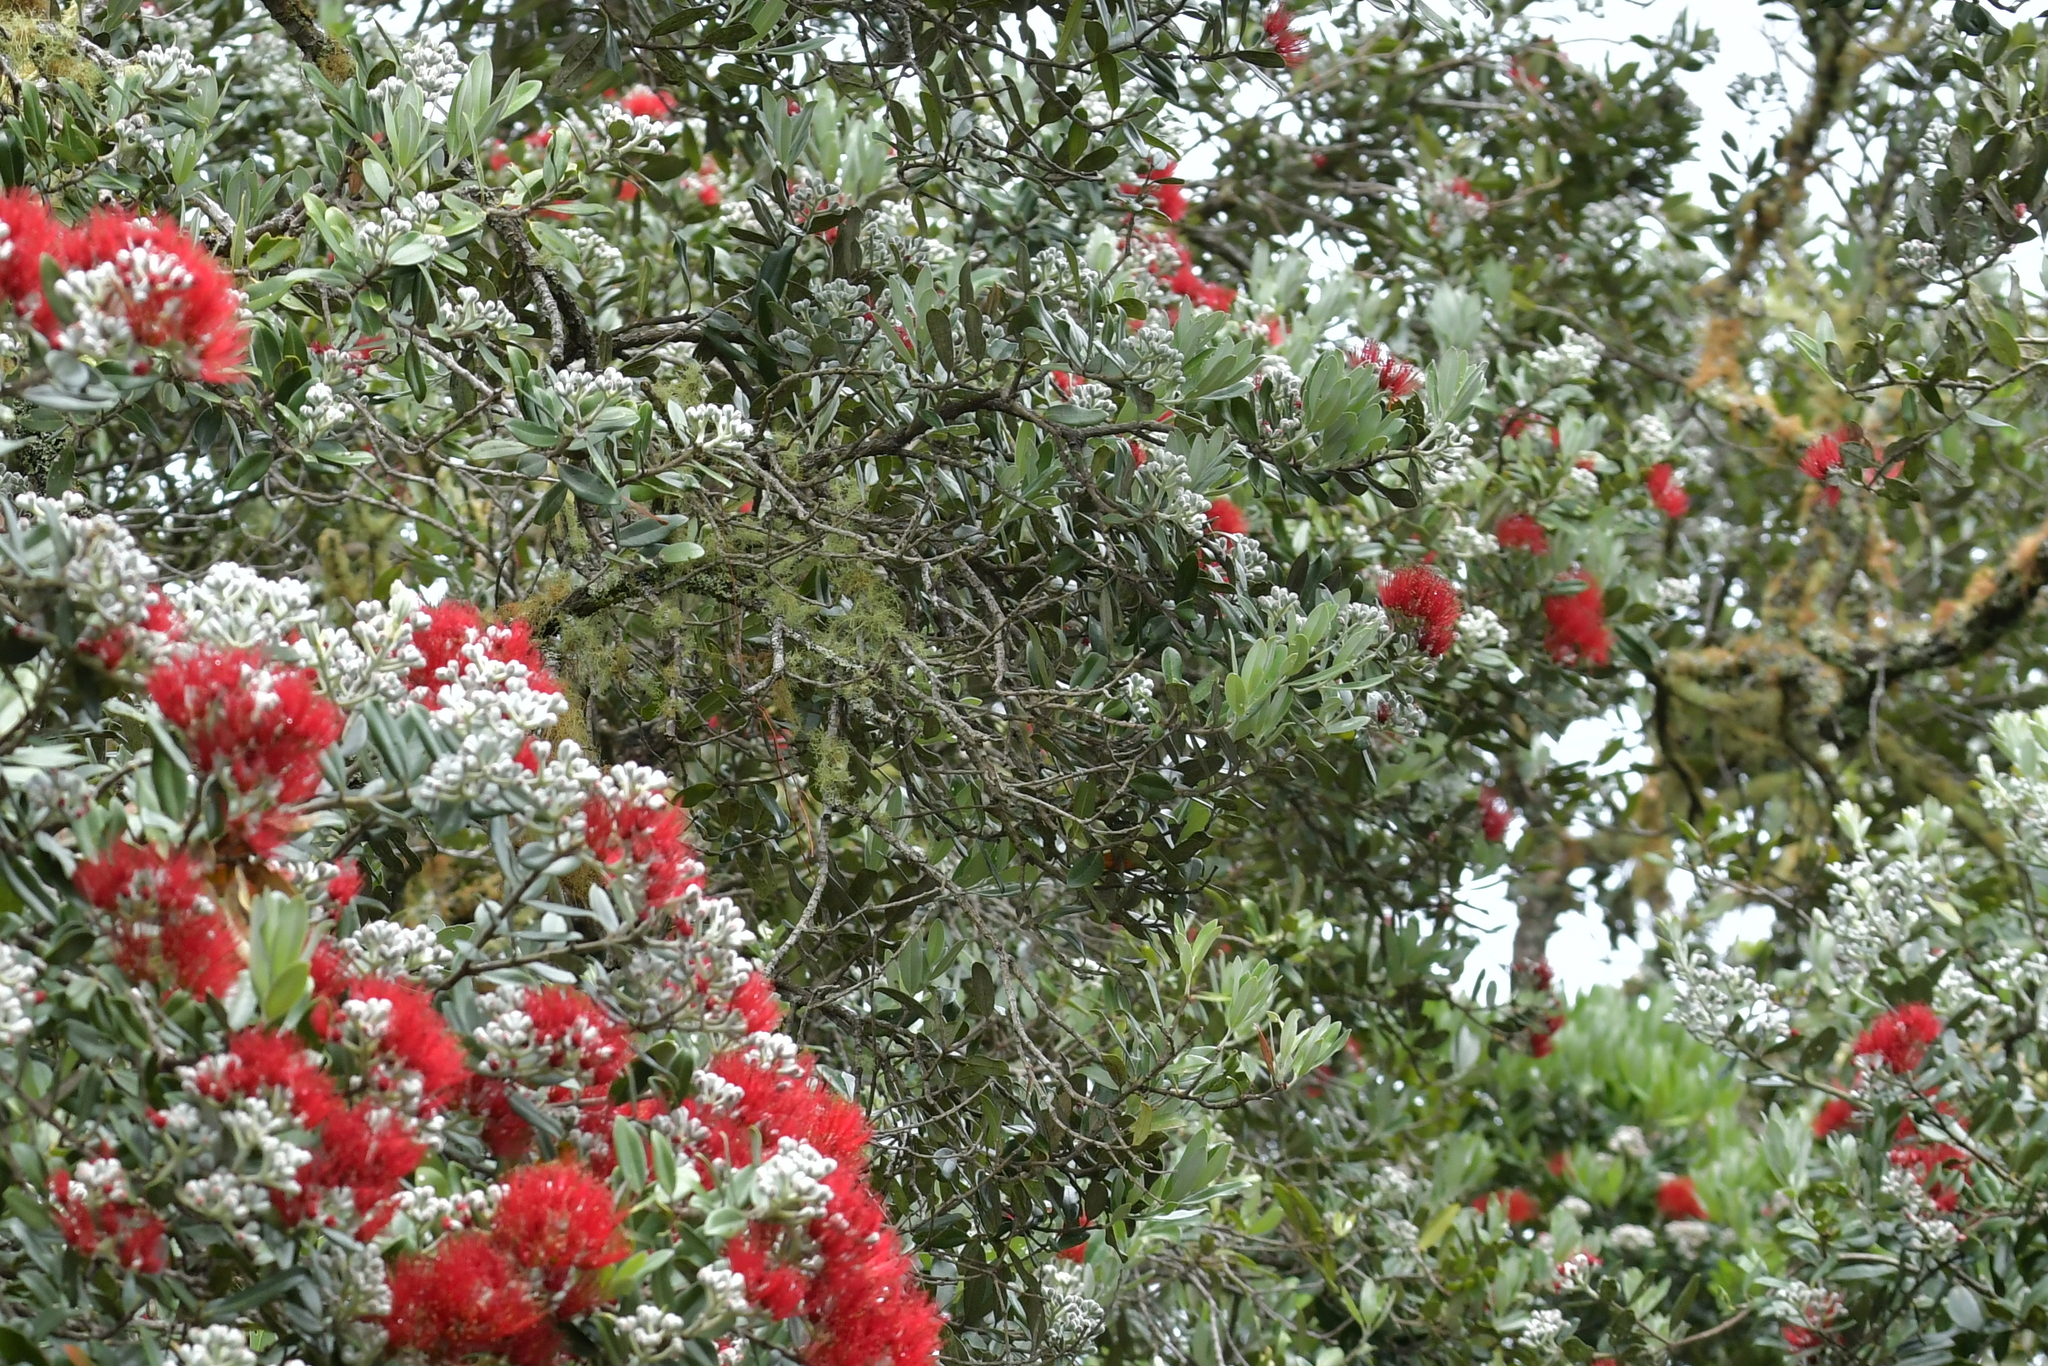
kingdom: Plantae
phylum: Tracheophyta
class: Magnoliopsida
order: Myrtales
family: Myrtaceae
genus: Metrosideros
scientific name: Metrosideros excelsa
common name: New zealand christmastree
